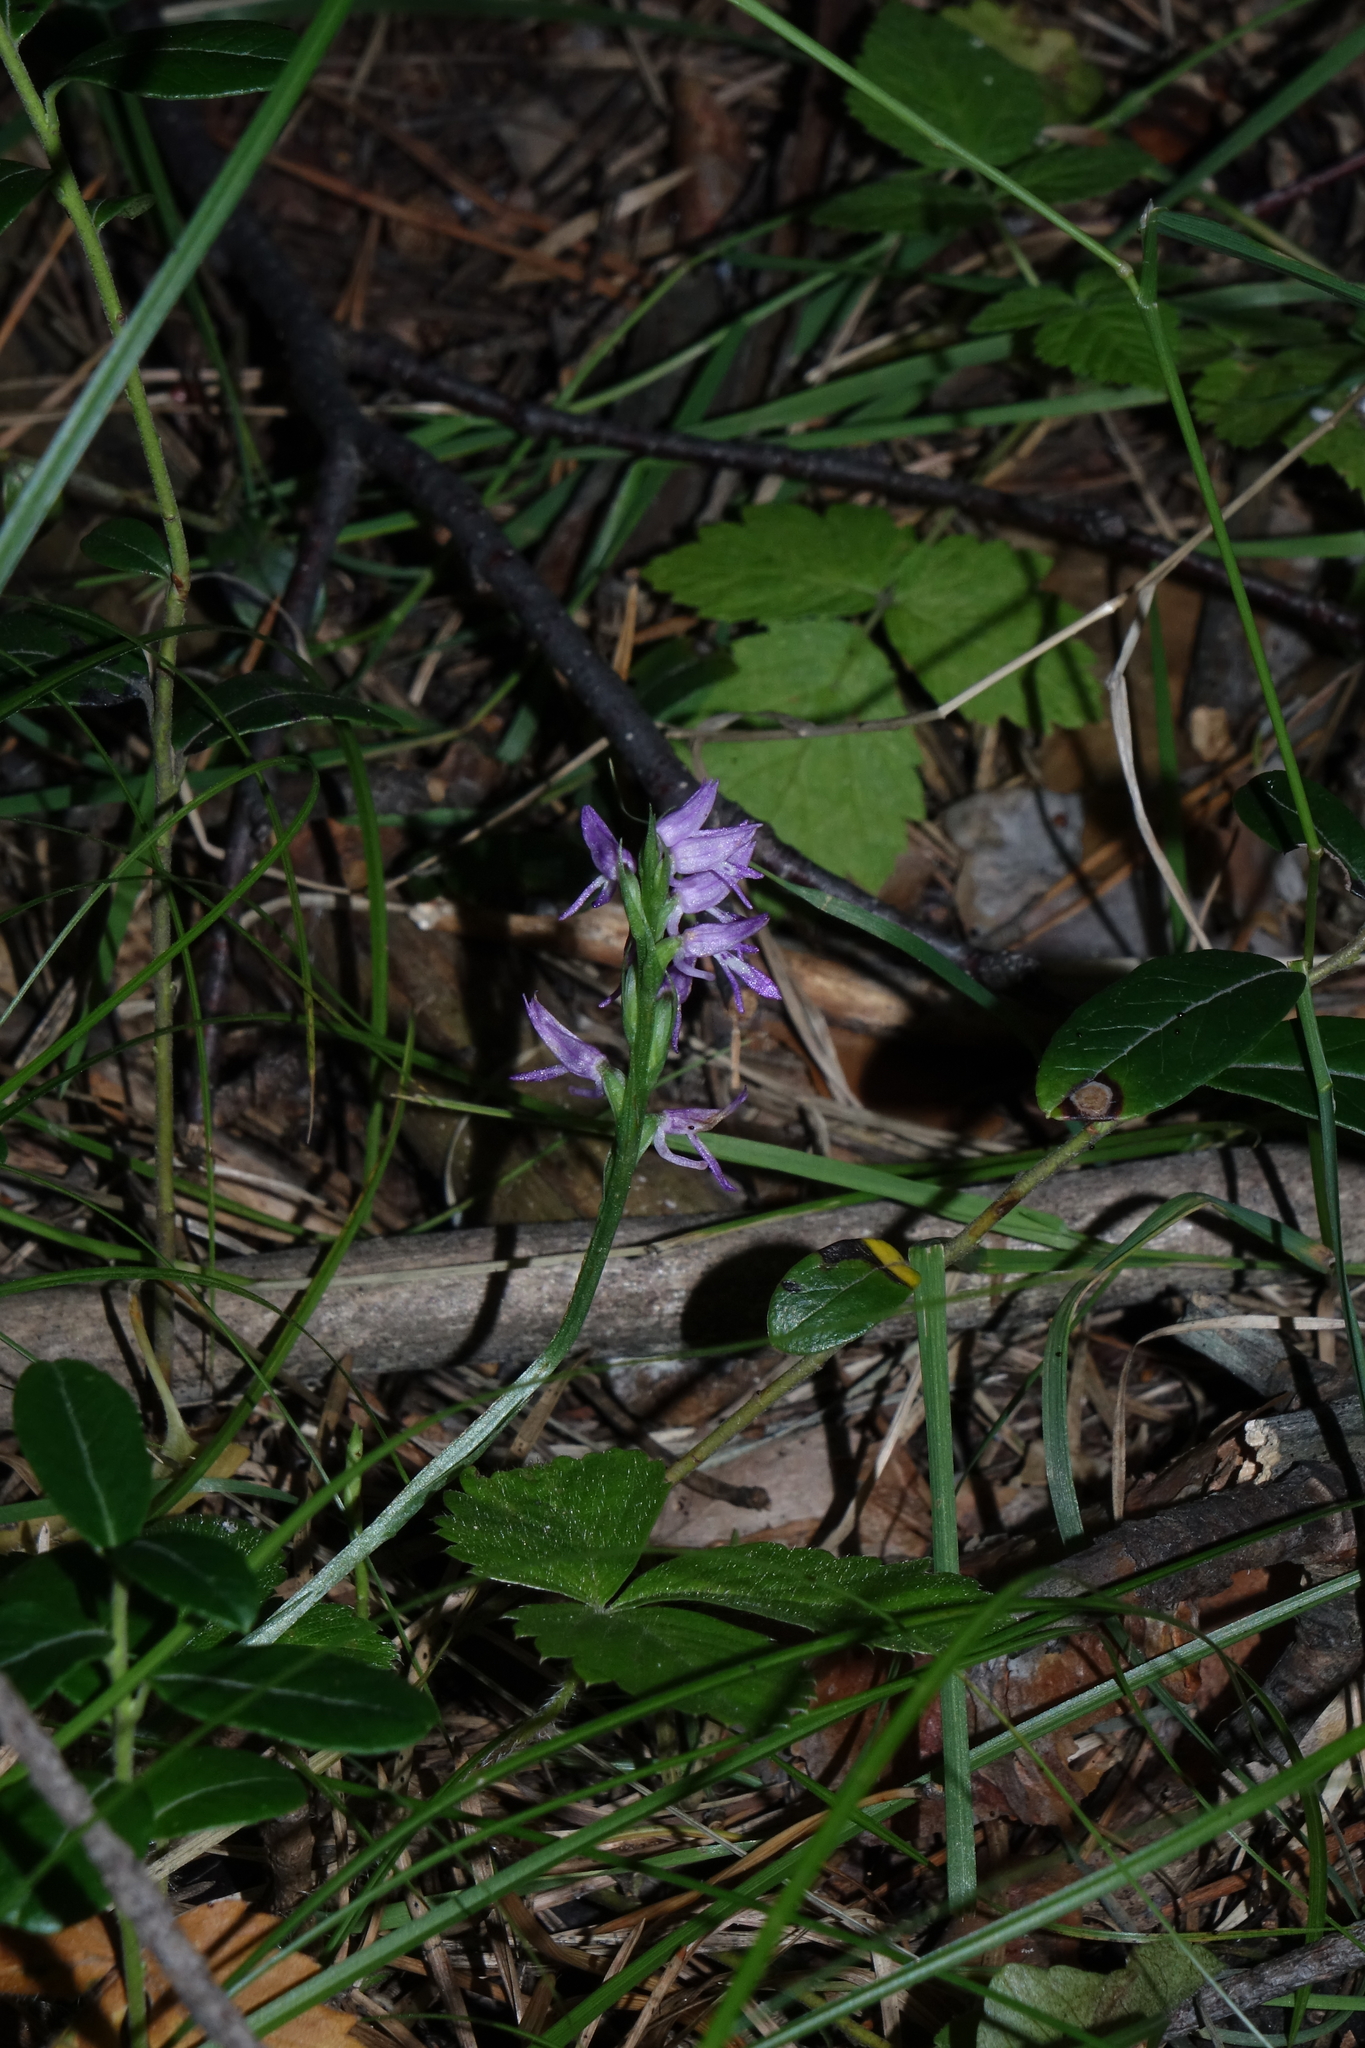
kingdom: Plantae
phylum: Tracheophyta
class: Liliopsida
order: Asparagales
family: Orchidaceae
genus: Hemipilia
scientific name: Hemipilia cucullata
